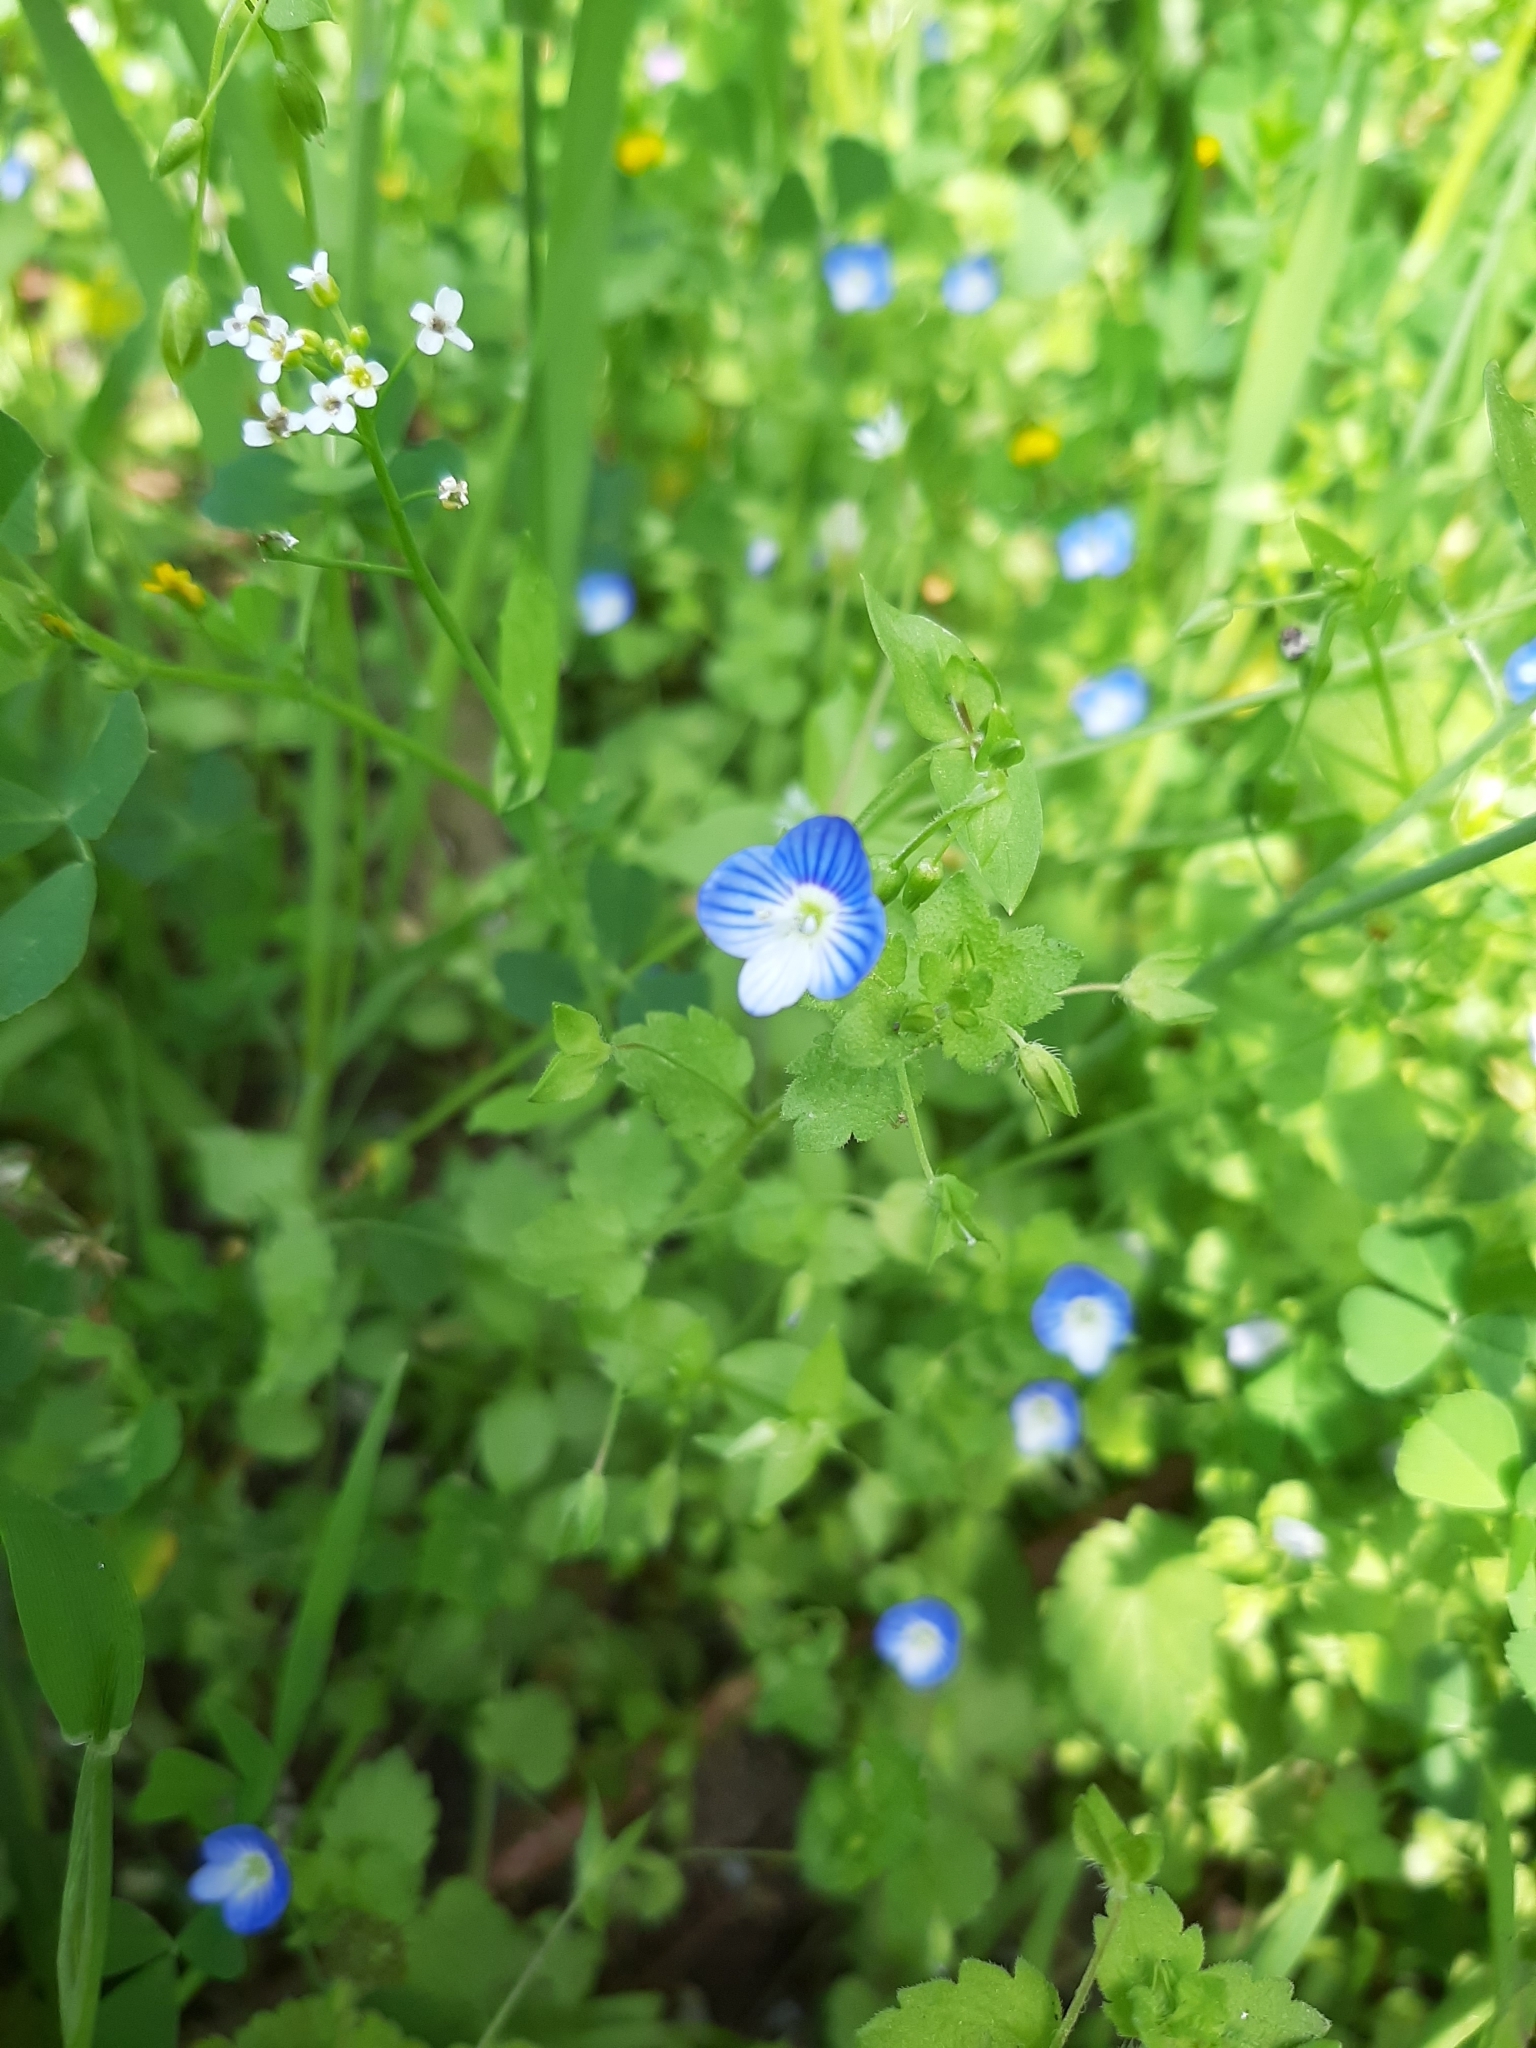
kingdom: Plantae
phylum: Tracheophyta
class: Magnoliopsida
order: Lamiales
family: Plantaginaceae
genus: Veronica
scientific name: Veronica persica
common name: Common field-speedwell
